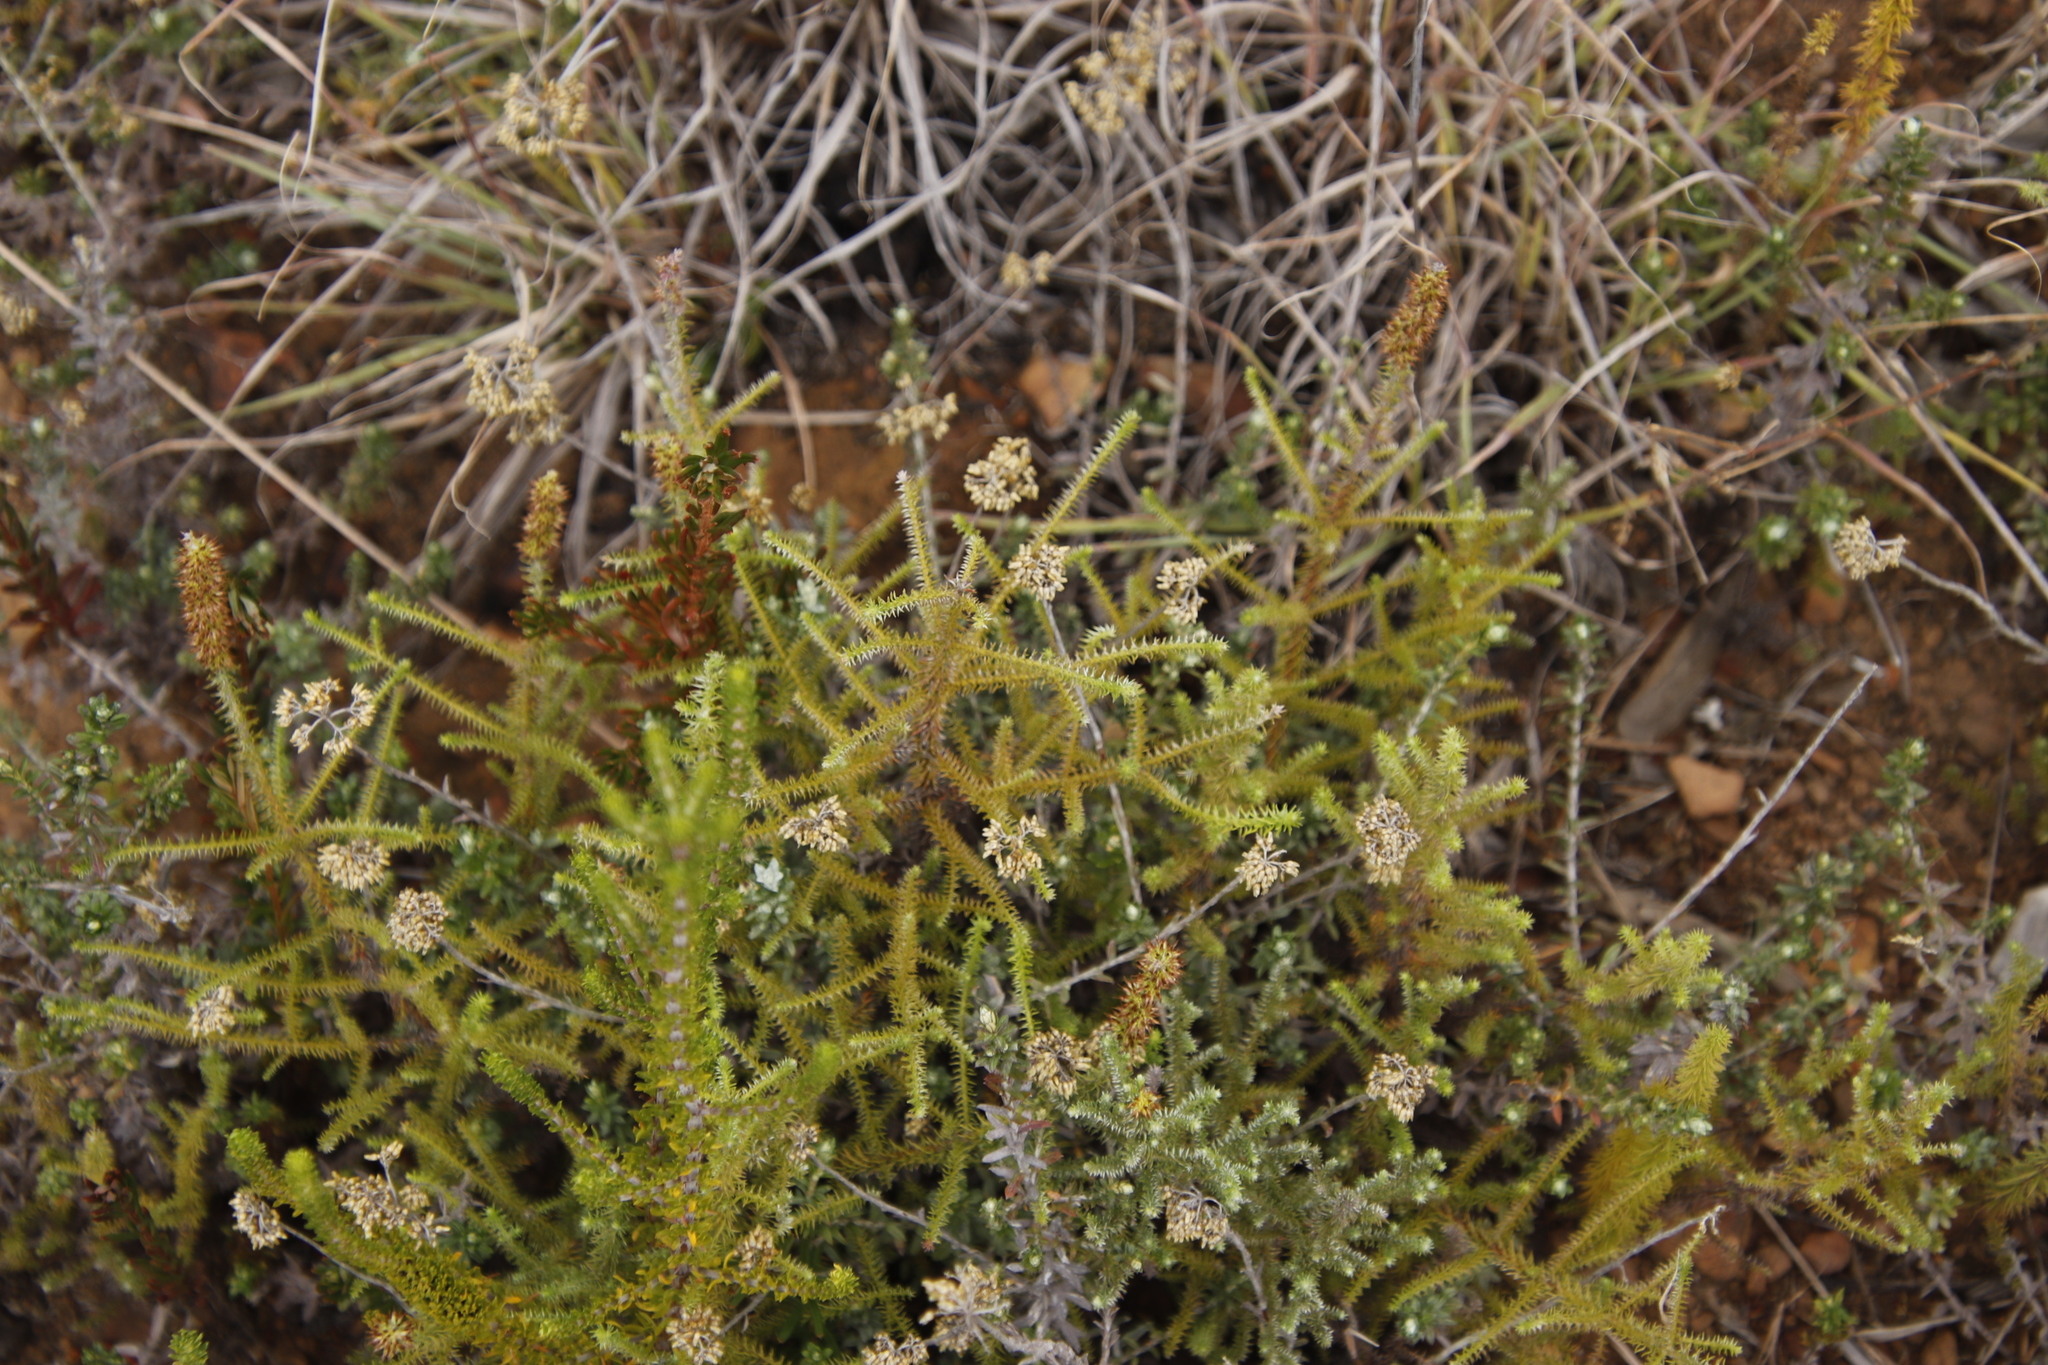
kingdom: Plantae
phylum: Tracheophyta
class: Magnoliopsida
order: Asterales
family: Asteraceae
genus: Helichrysum
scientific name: Helichrysum teretifolium
